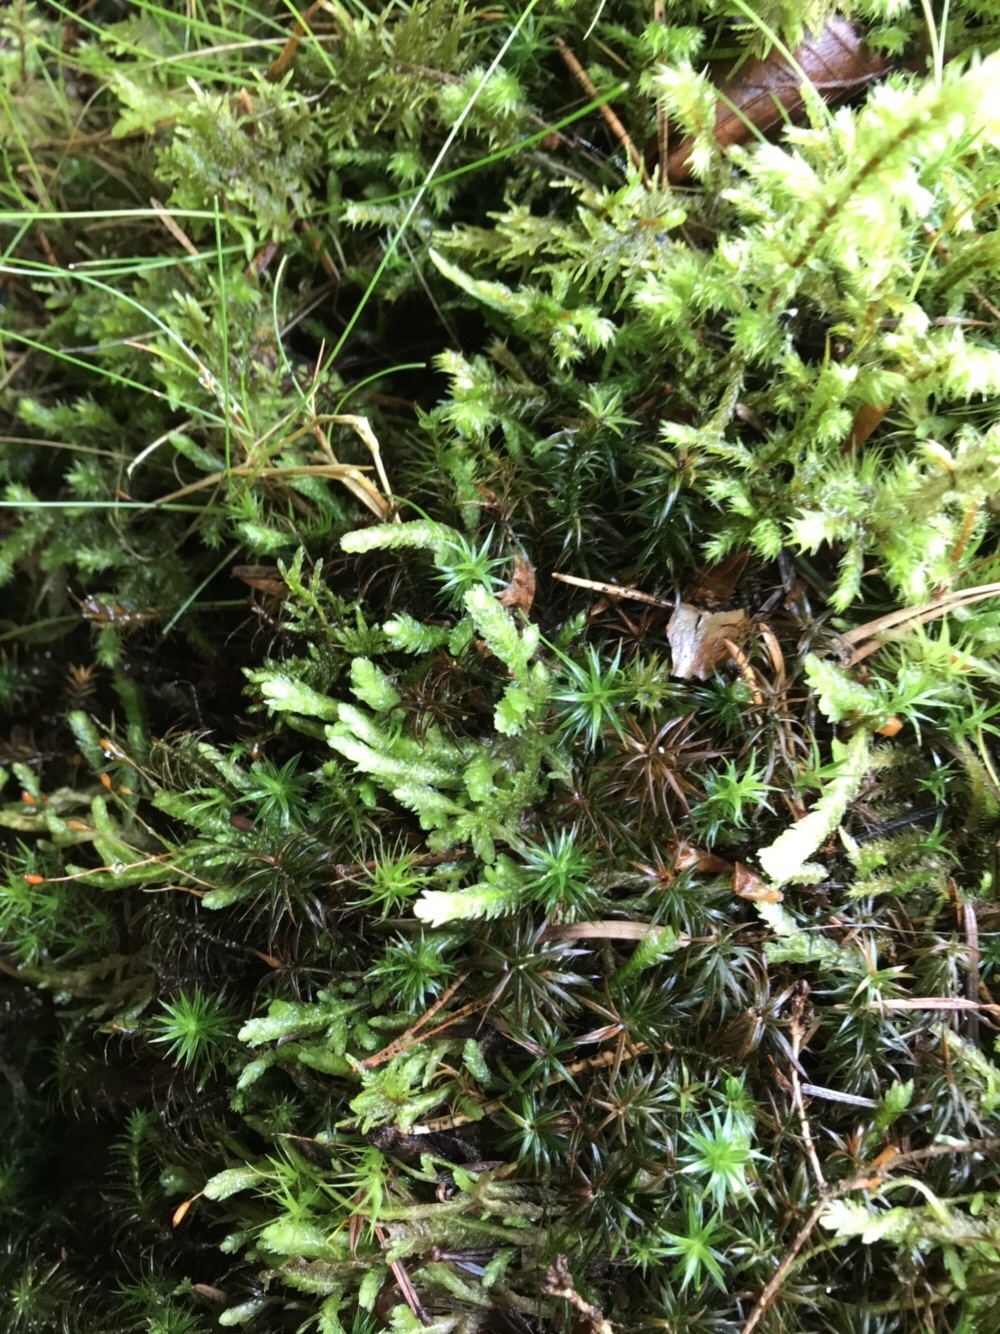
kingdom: Plantae
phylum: Bryophyta
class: Bryopsida
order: Hypnales
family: Plagiotheciaceae
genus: Plagiothecium
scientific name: Plagiothecium undulatum
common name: Waved silk-moss
